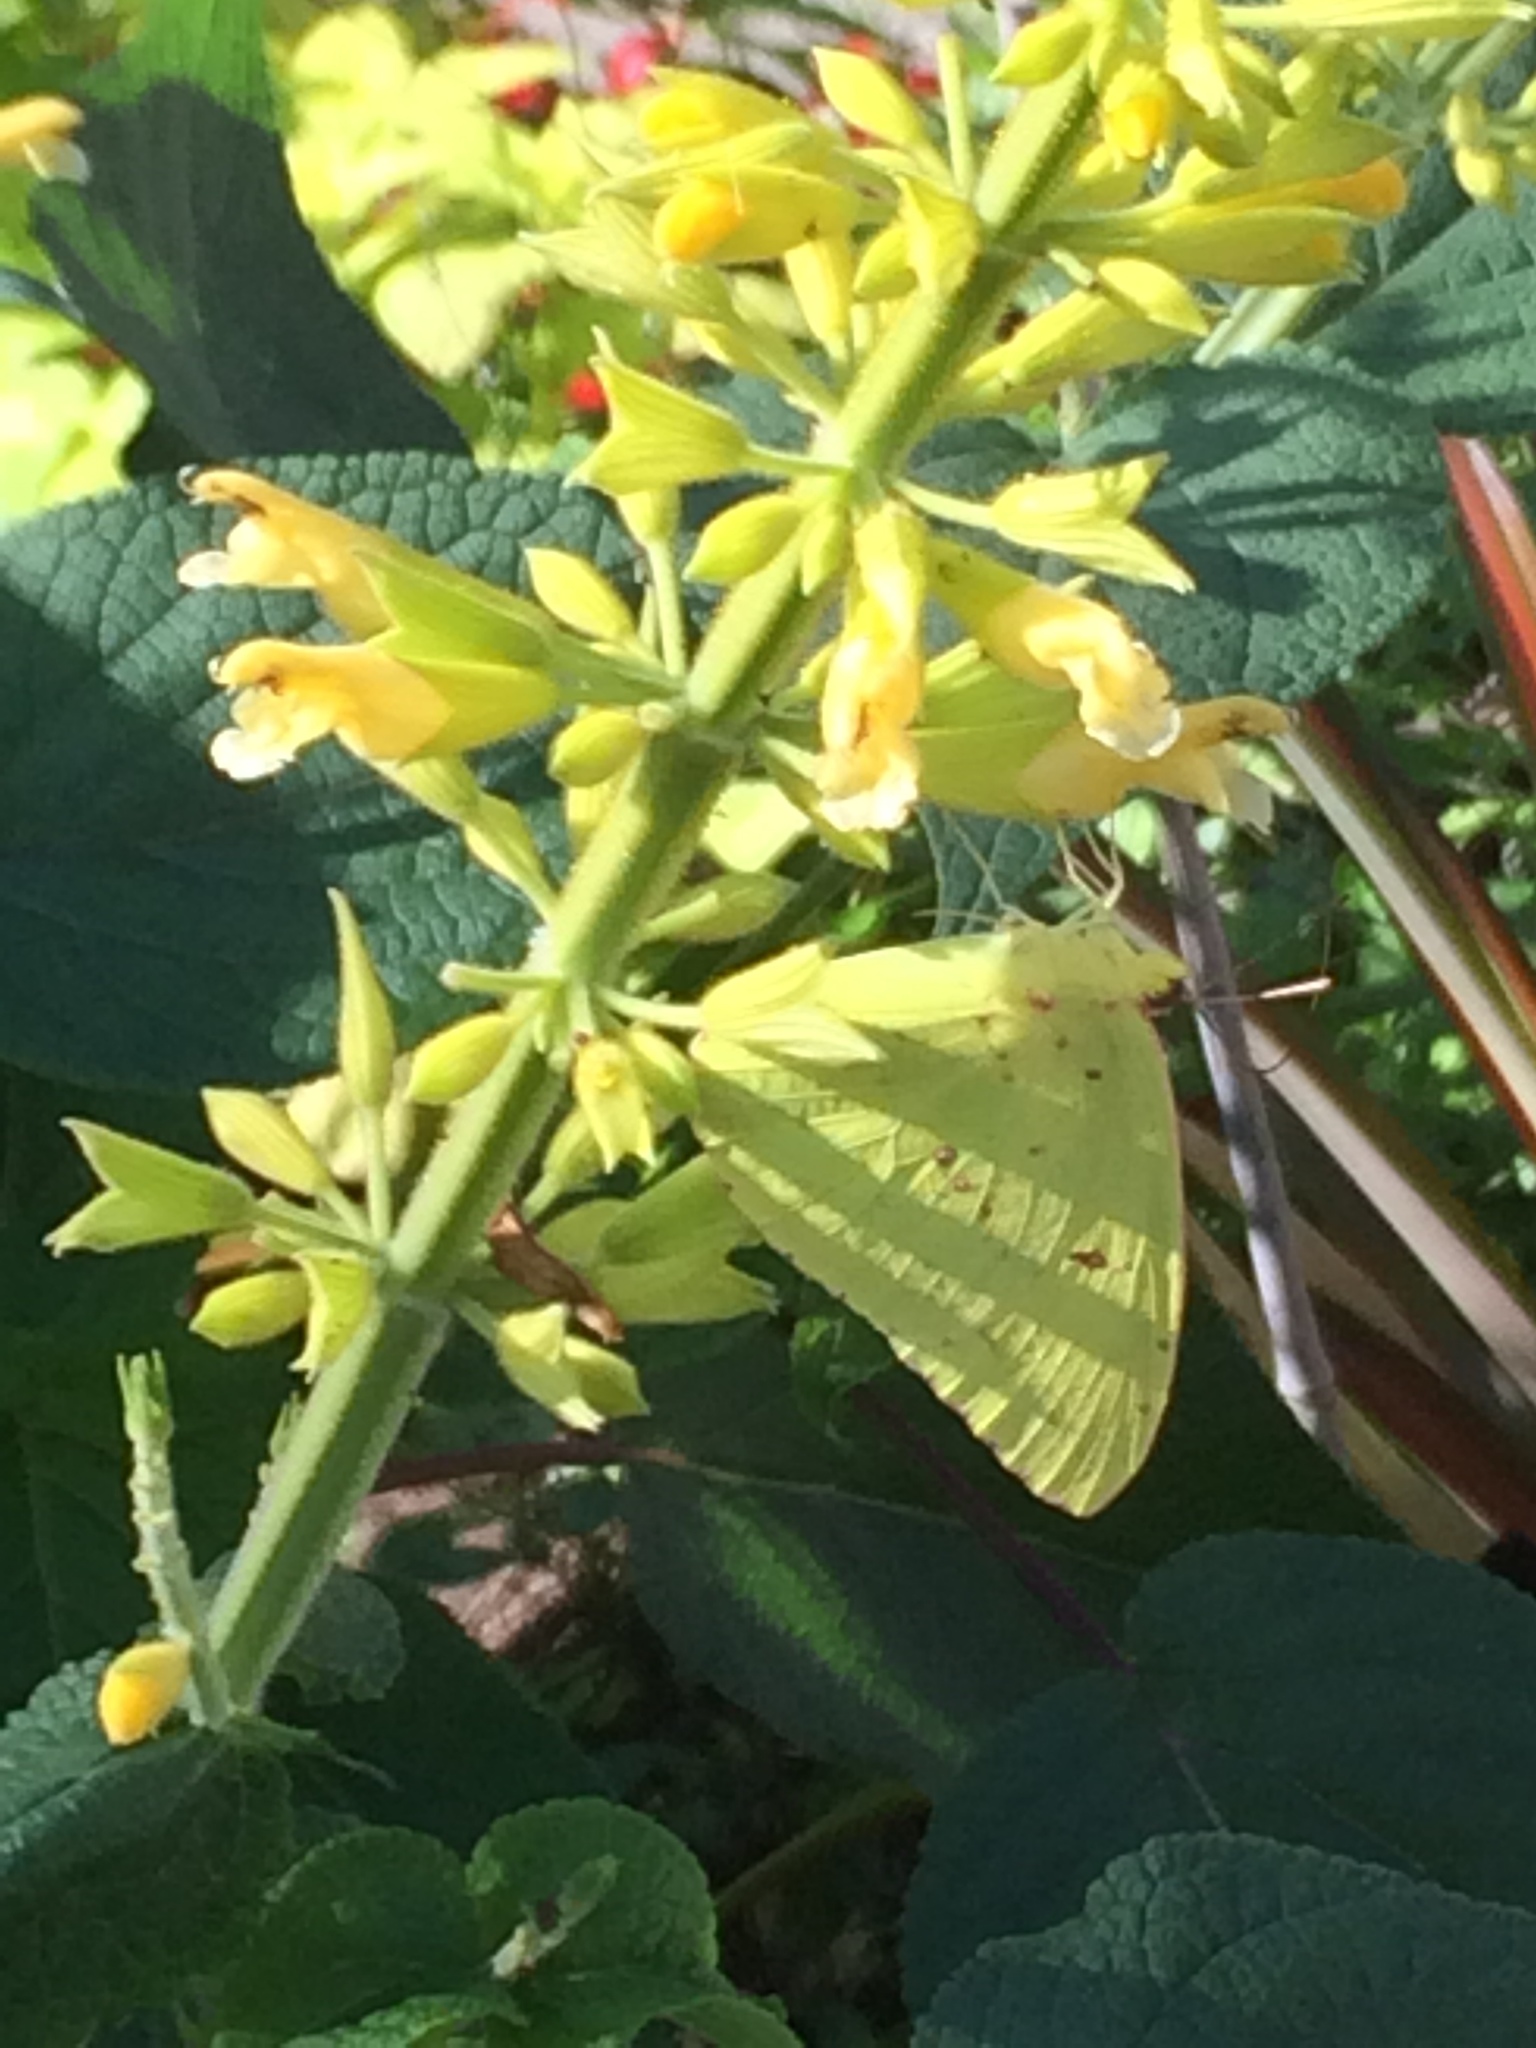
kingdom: Animalia
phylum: Arthropoda
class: Insecta
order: Lepidoptera
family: Pieridae
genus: Phoebis
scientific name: Phoebis sennae
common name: Cloudless sulphur
